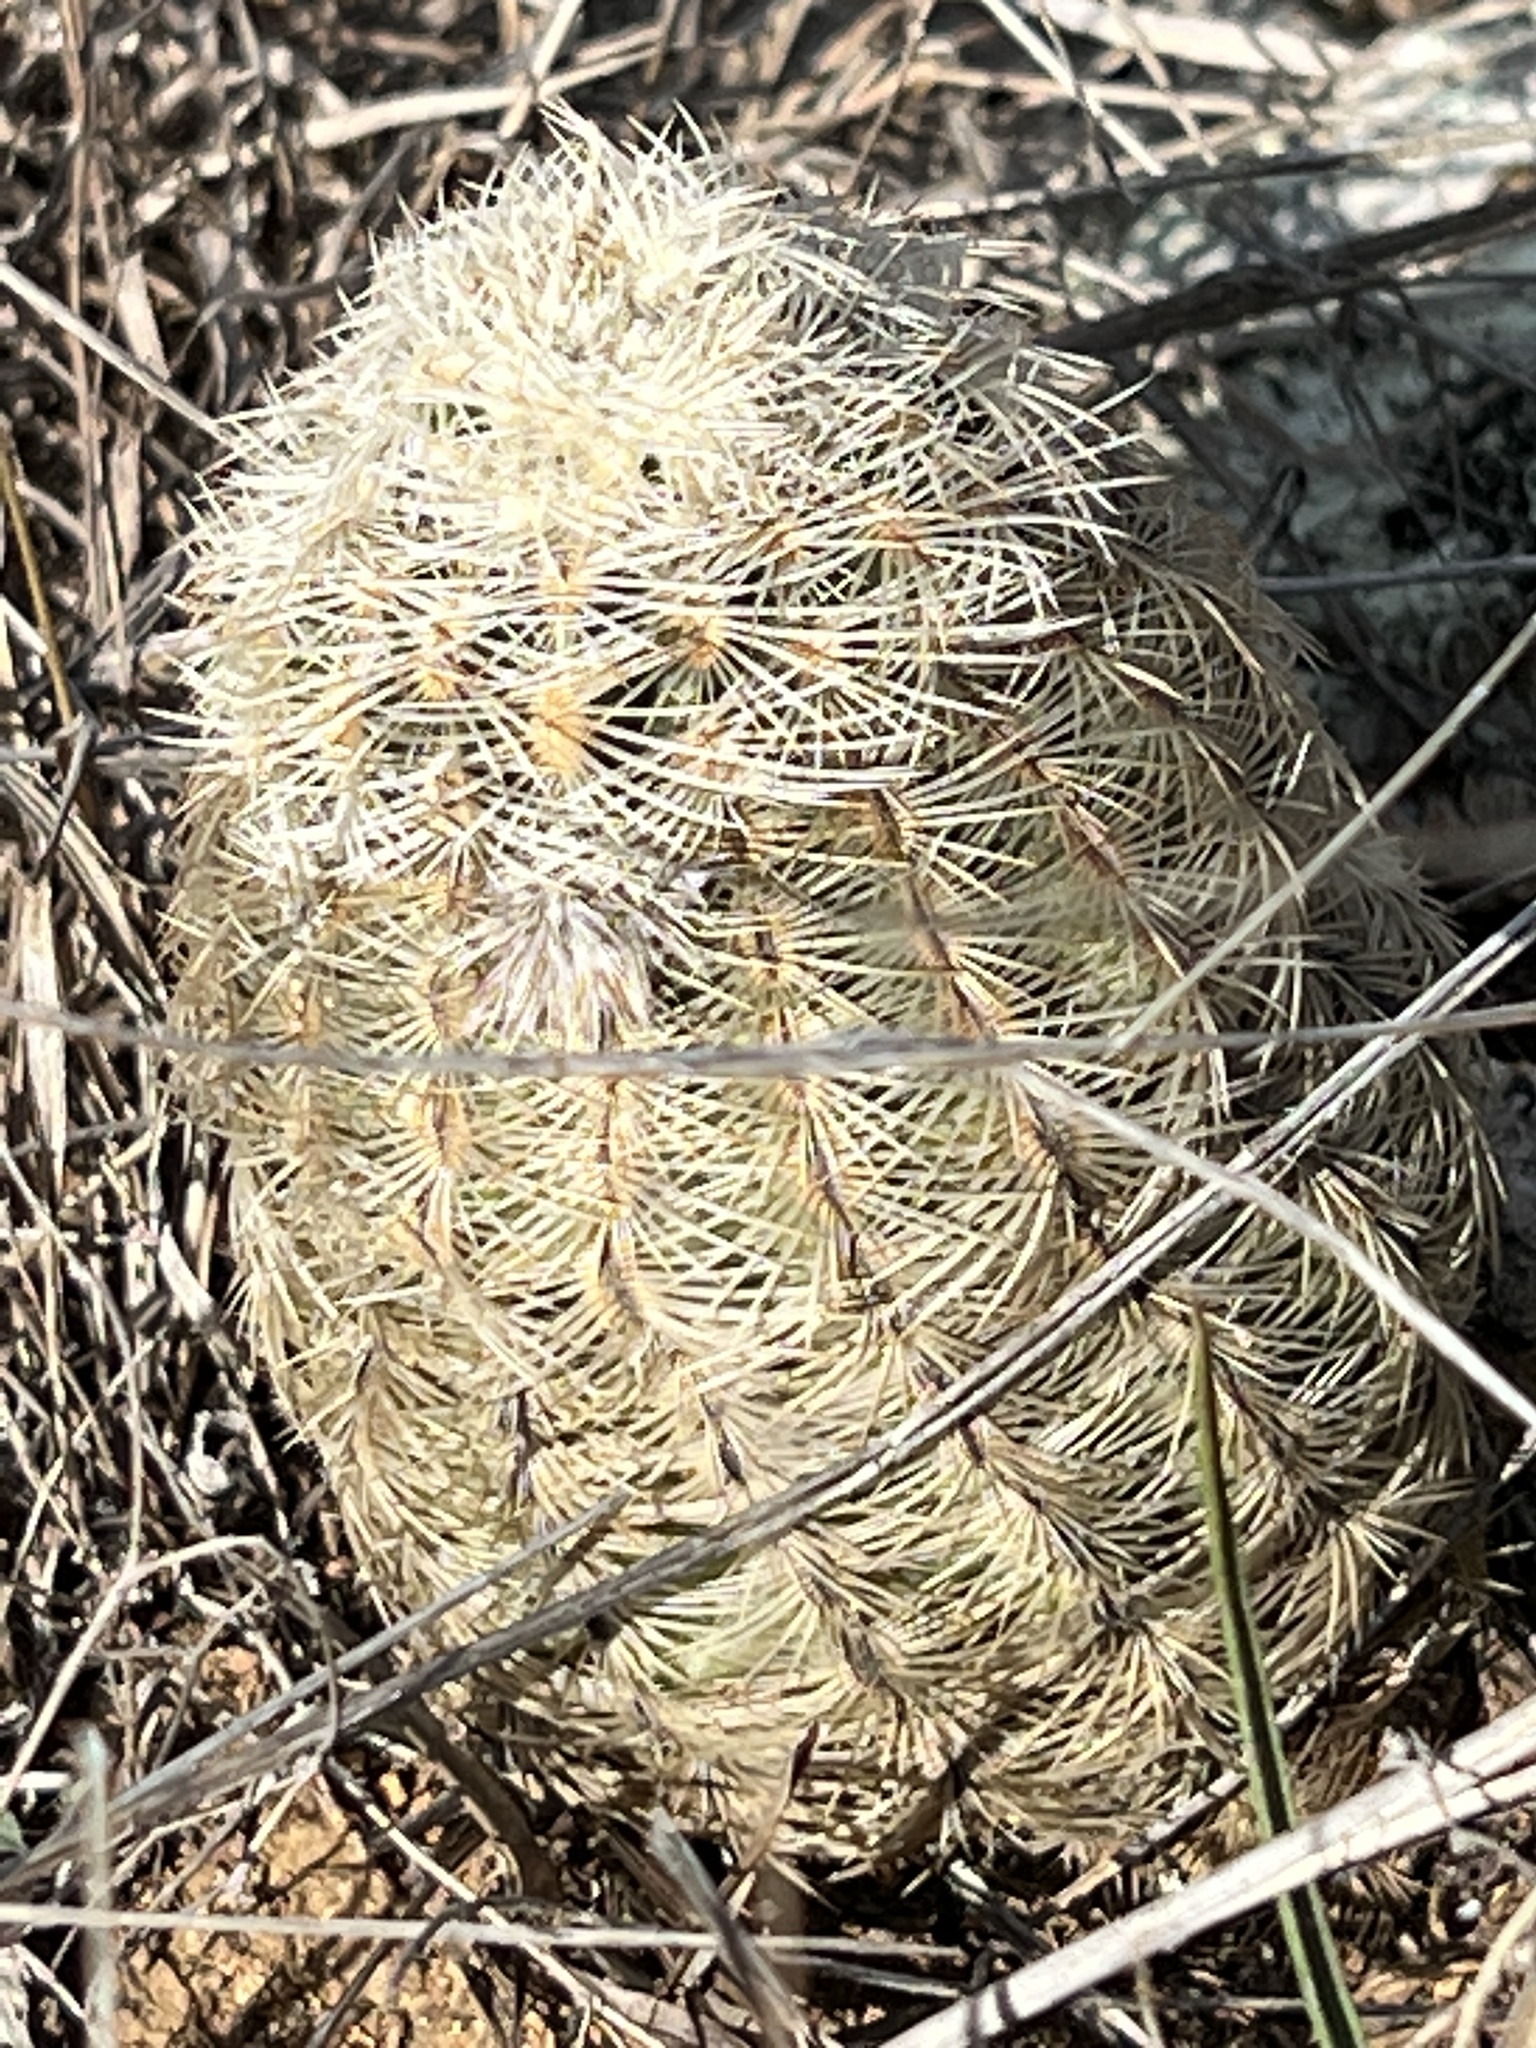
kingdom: Plantae
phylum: Tracheophyta
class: Magnoliopsida
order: Caryophyllales
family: Cactaceae
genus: Echinocereus
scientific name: Echinocereus reichenbachii
